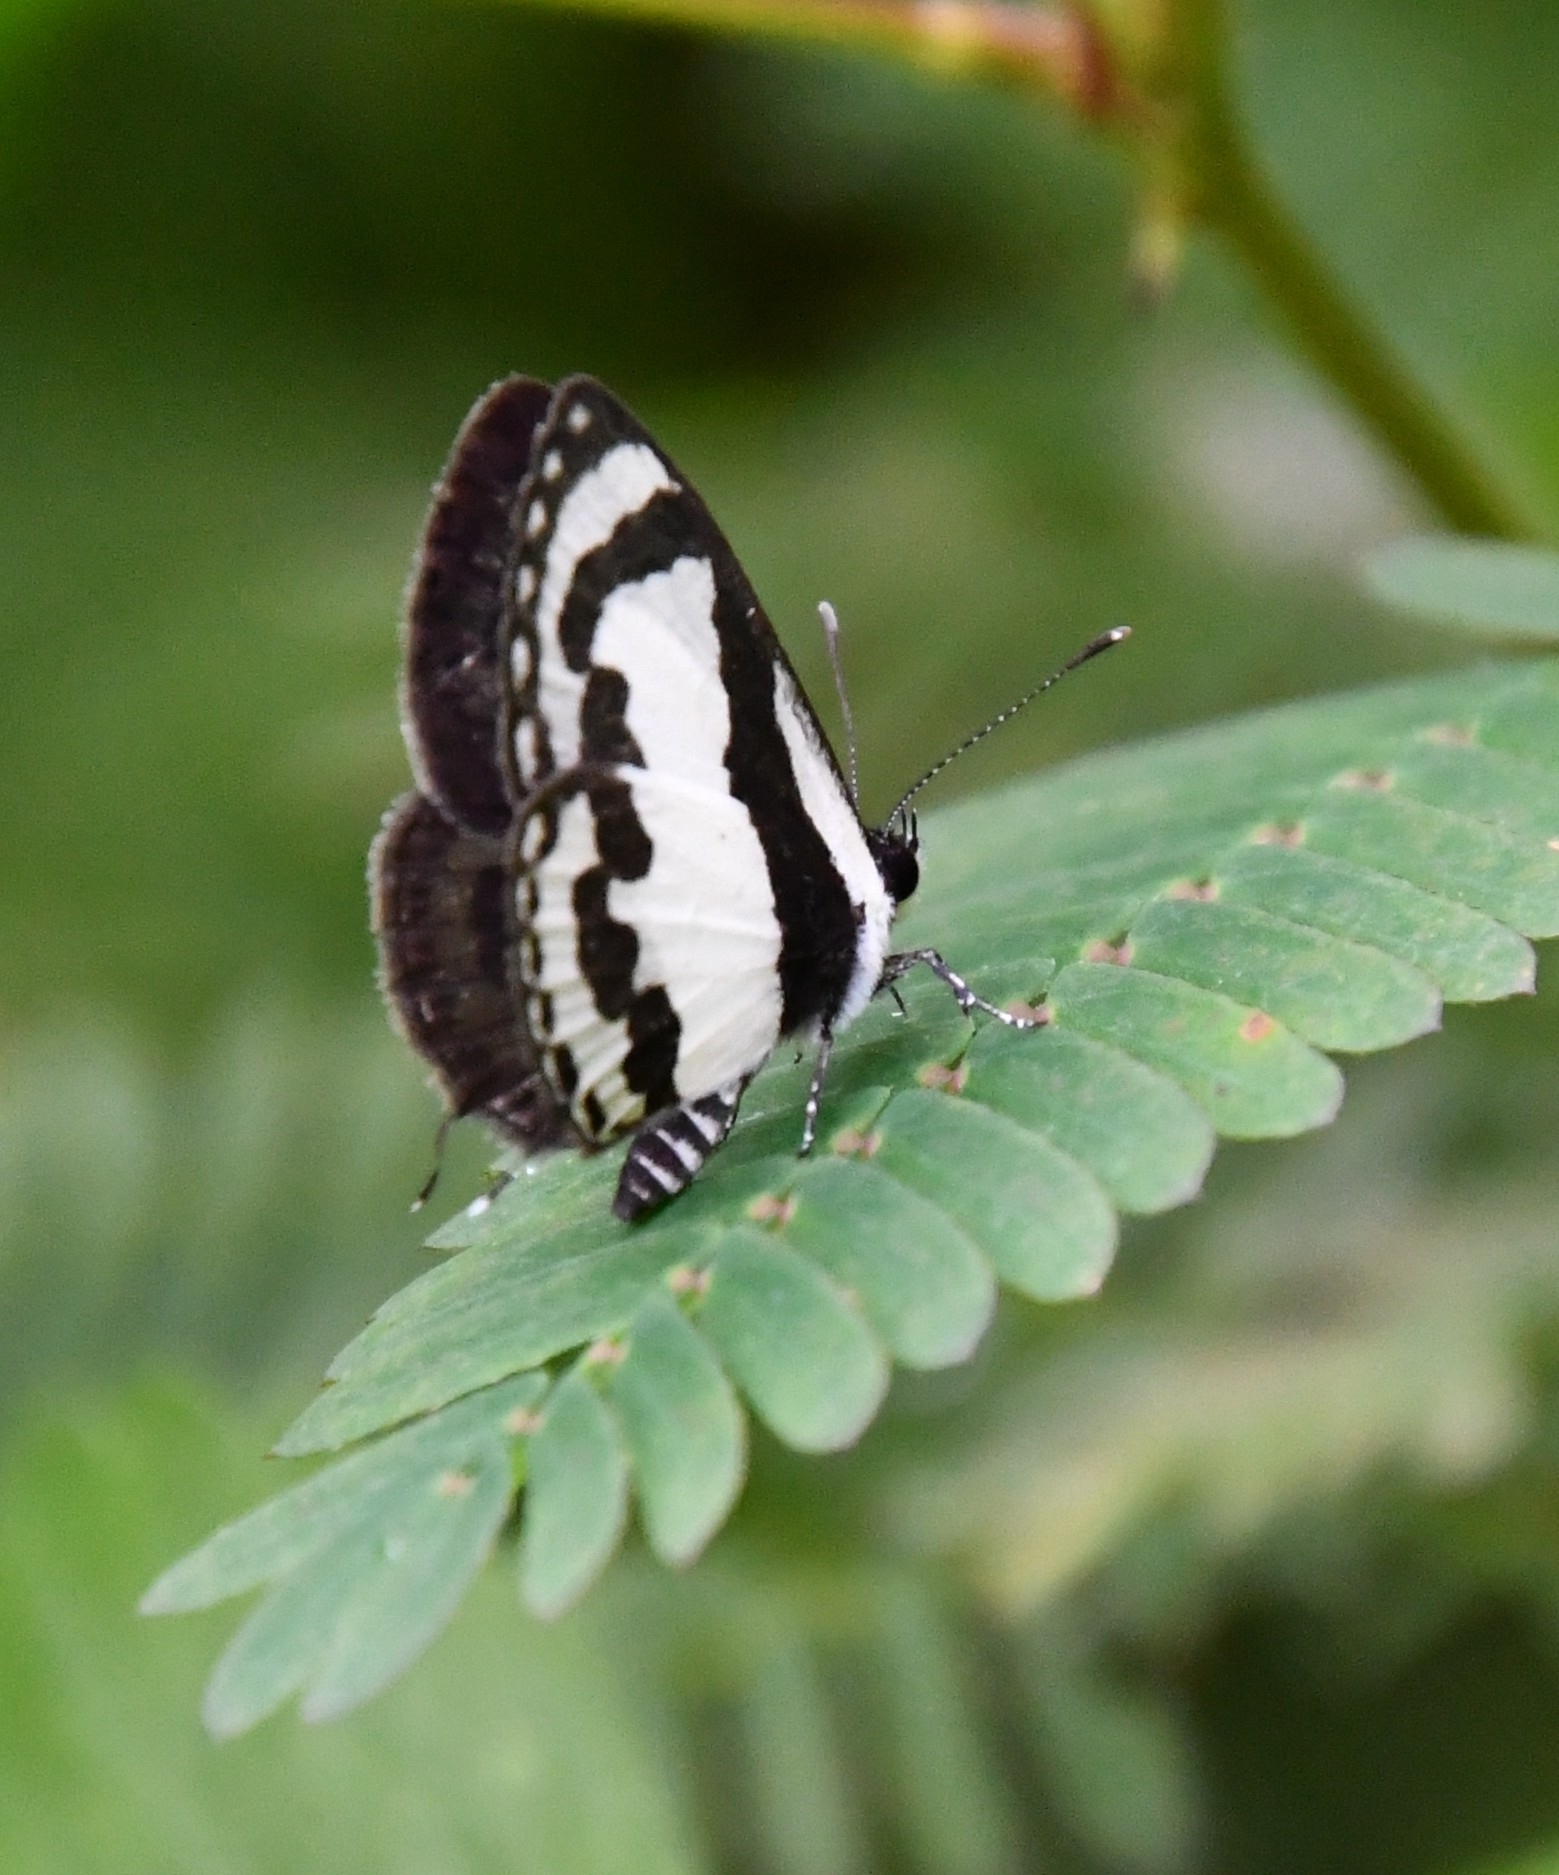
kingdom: Animalia
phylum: Arthropoda
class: Insecta
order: Lepidoptera
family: Lycaenidae
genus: Caleta
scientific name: Caleta roxus
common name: Straight pierrot
